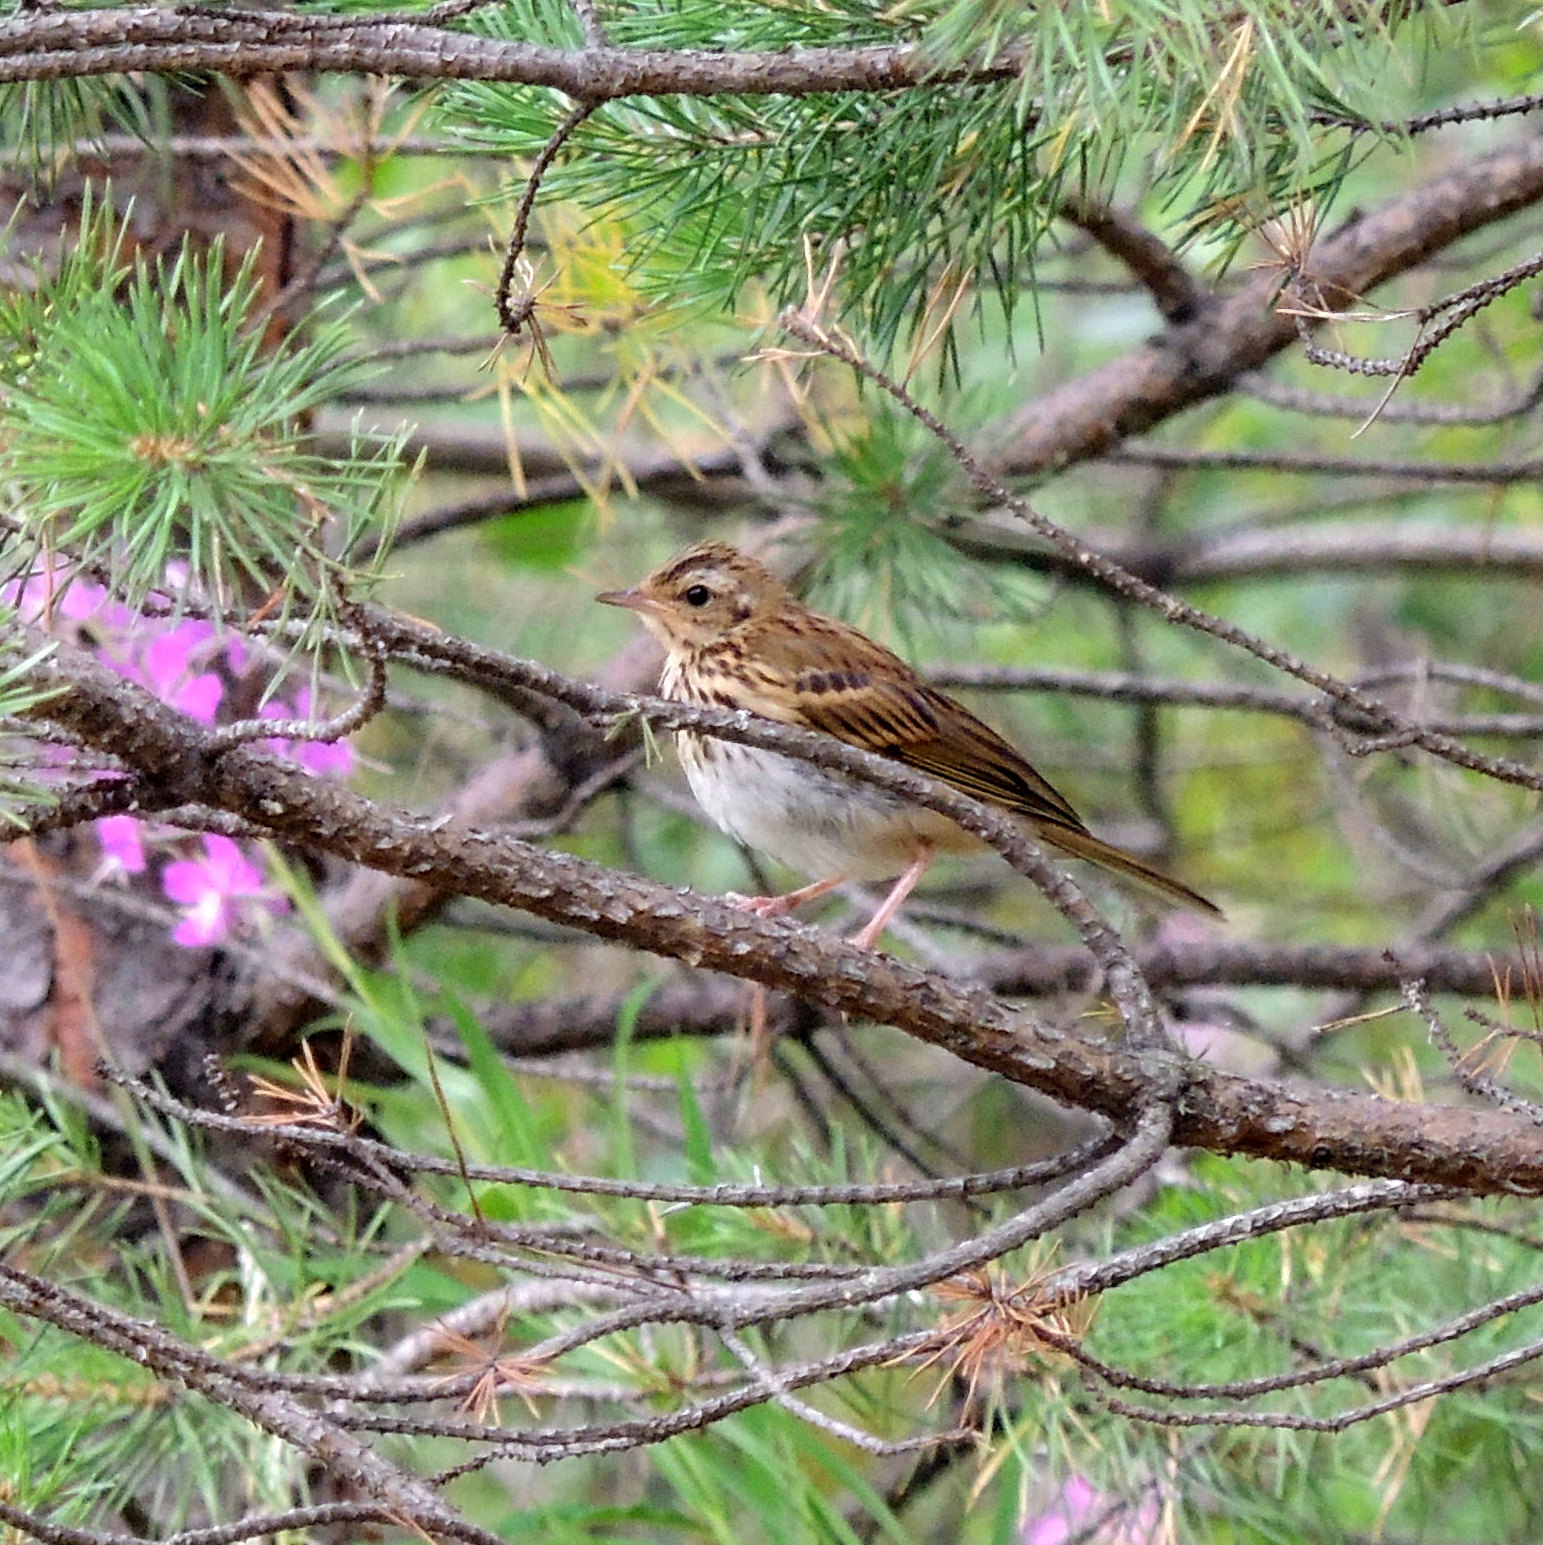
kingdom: Animalia
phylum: Chordata
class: Aves
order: Passeriformes
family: Motacillidae
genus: Anthus
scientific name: Anthus hodgsoni
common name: Olive-backed pipit
